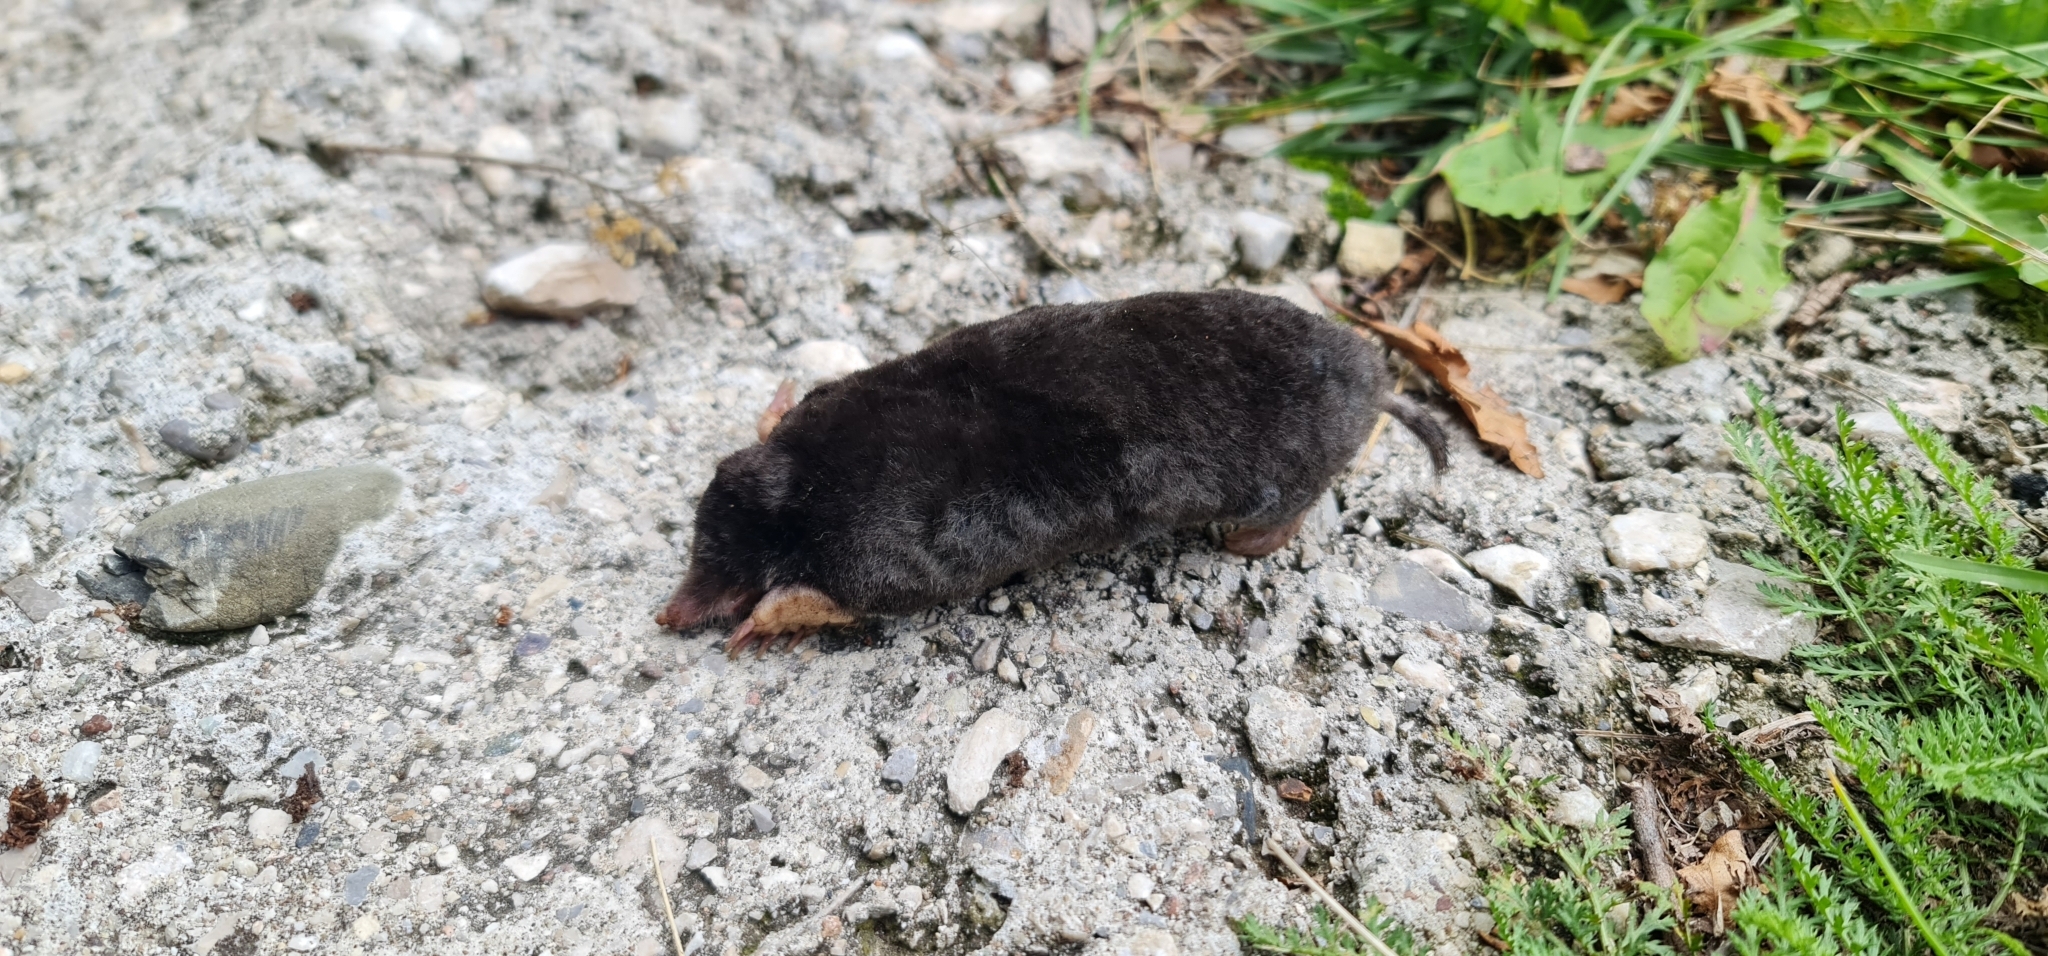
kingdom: Animalia
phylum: Chordata
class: Mammalia
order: Soricomorpha
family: Talpidae
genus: Talpa
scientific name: Talpa europaea
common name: European mole
